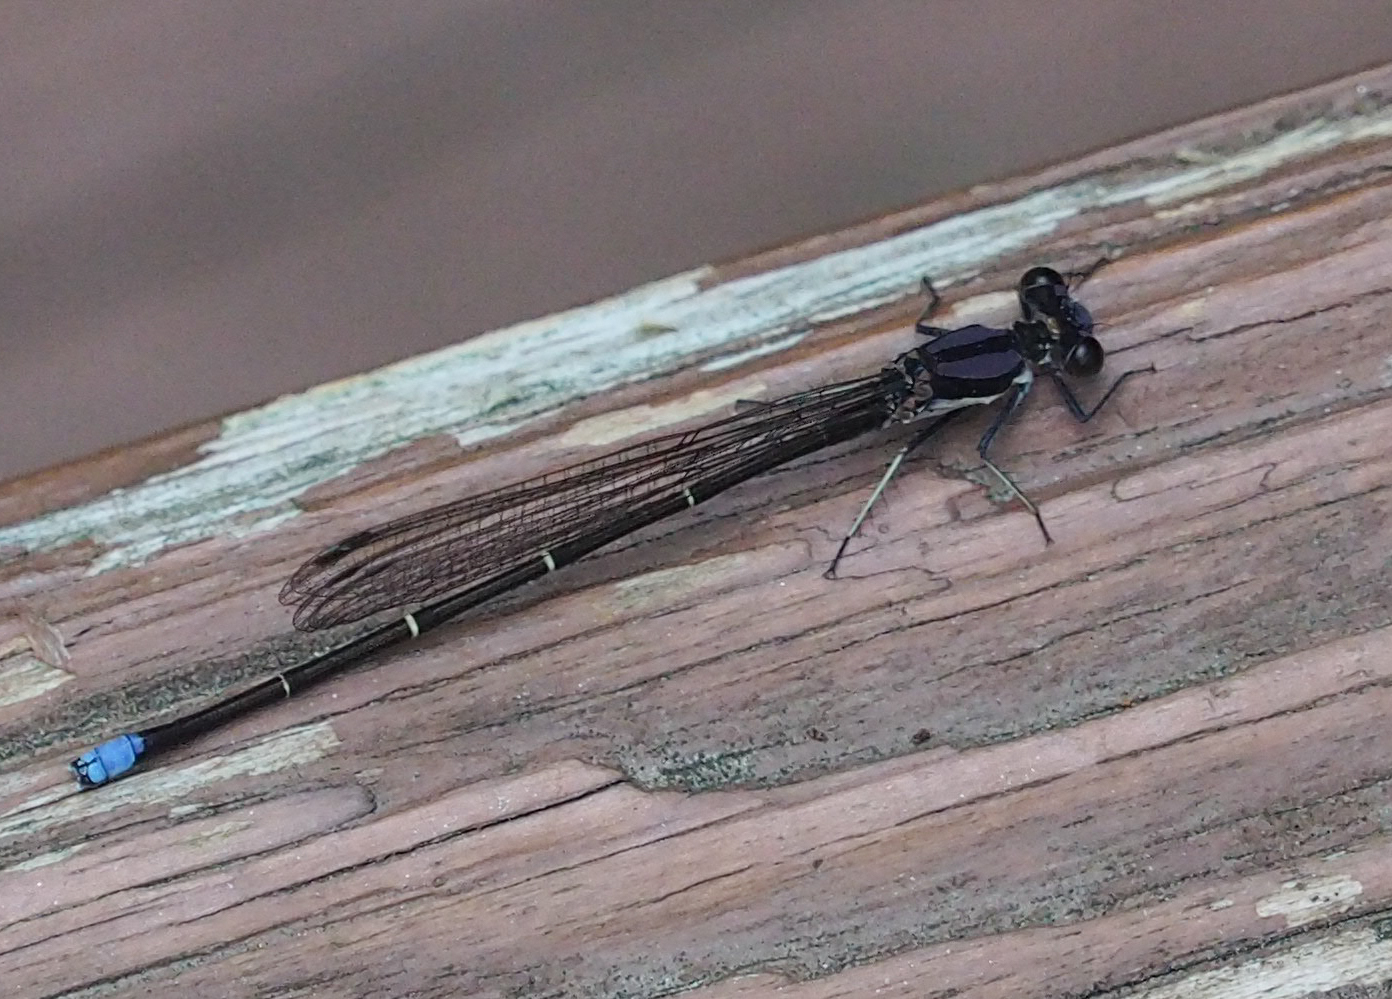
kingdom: Animalia
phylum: Arthropoda
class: Insecta
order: Odonata
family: Coenagrionidae
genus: Argia
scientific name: Argia tibialis
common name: Blue-tipped dancer
